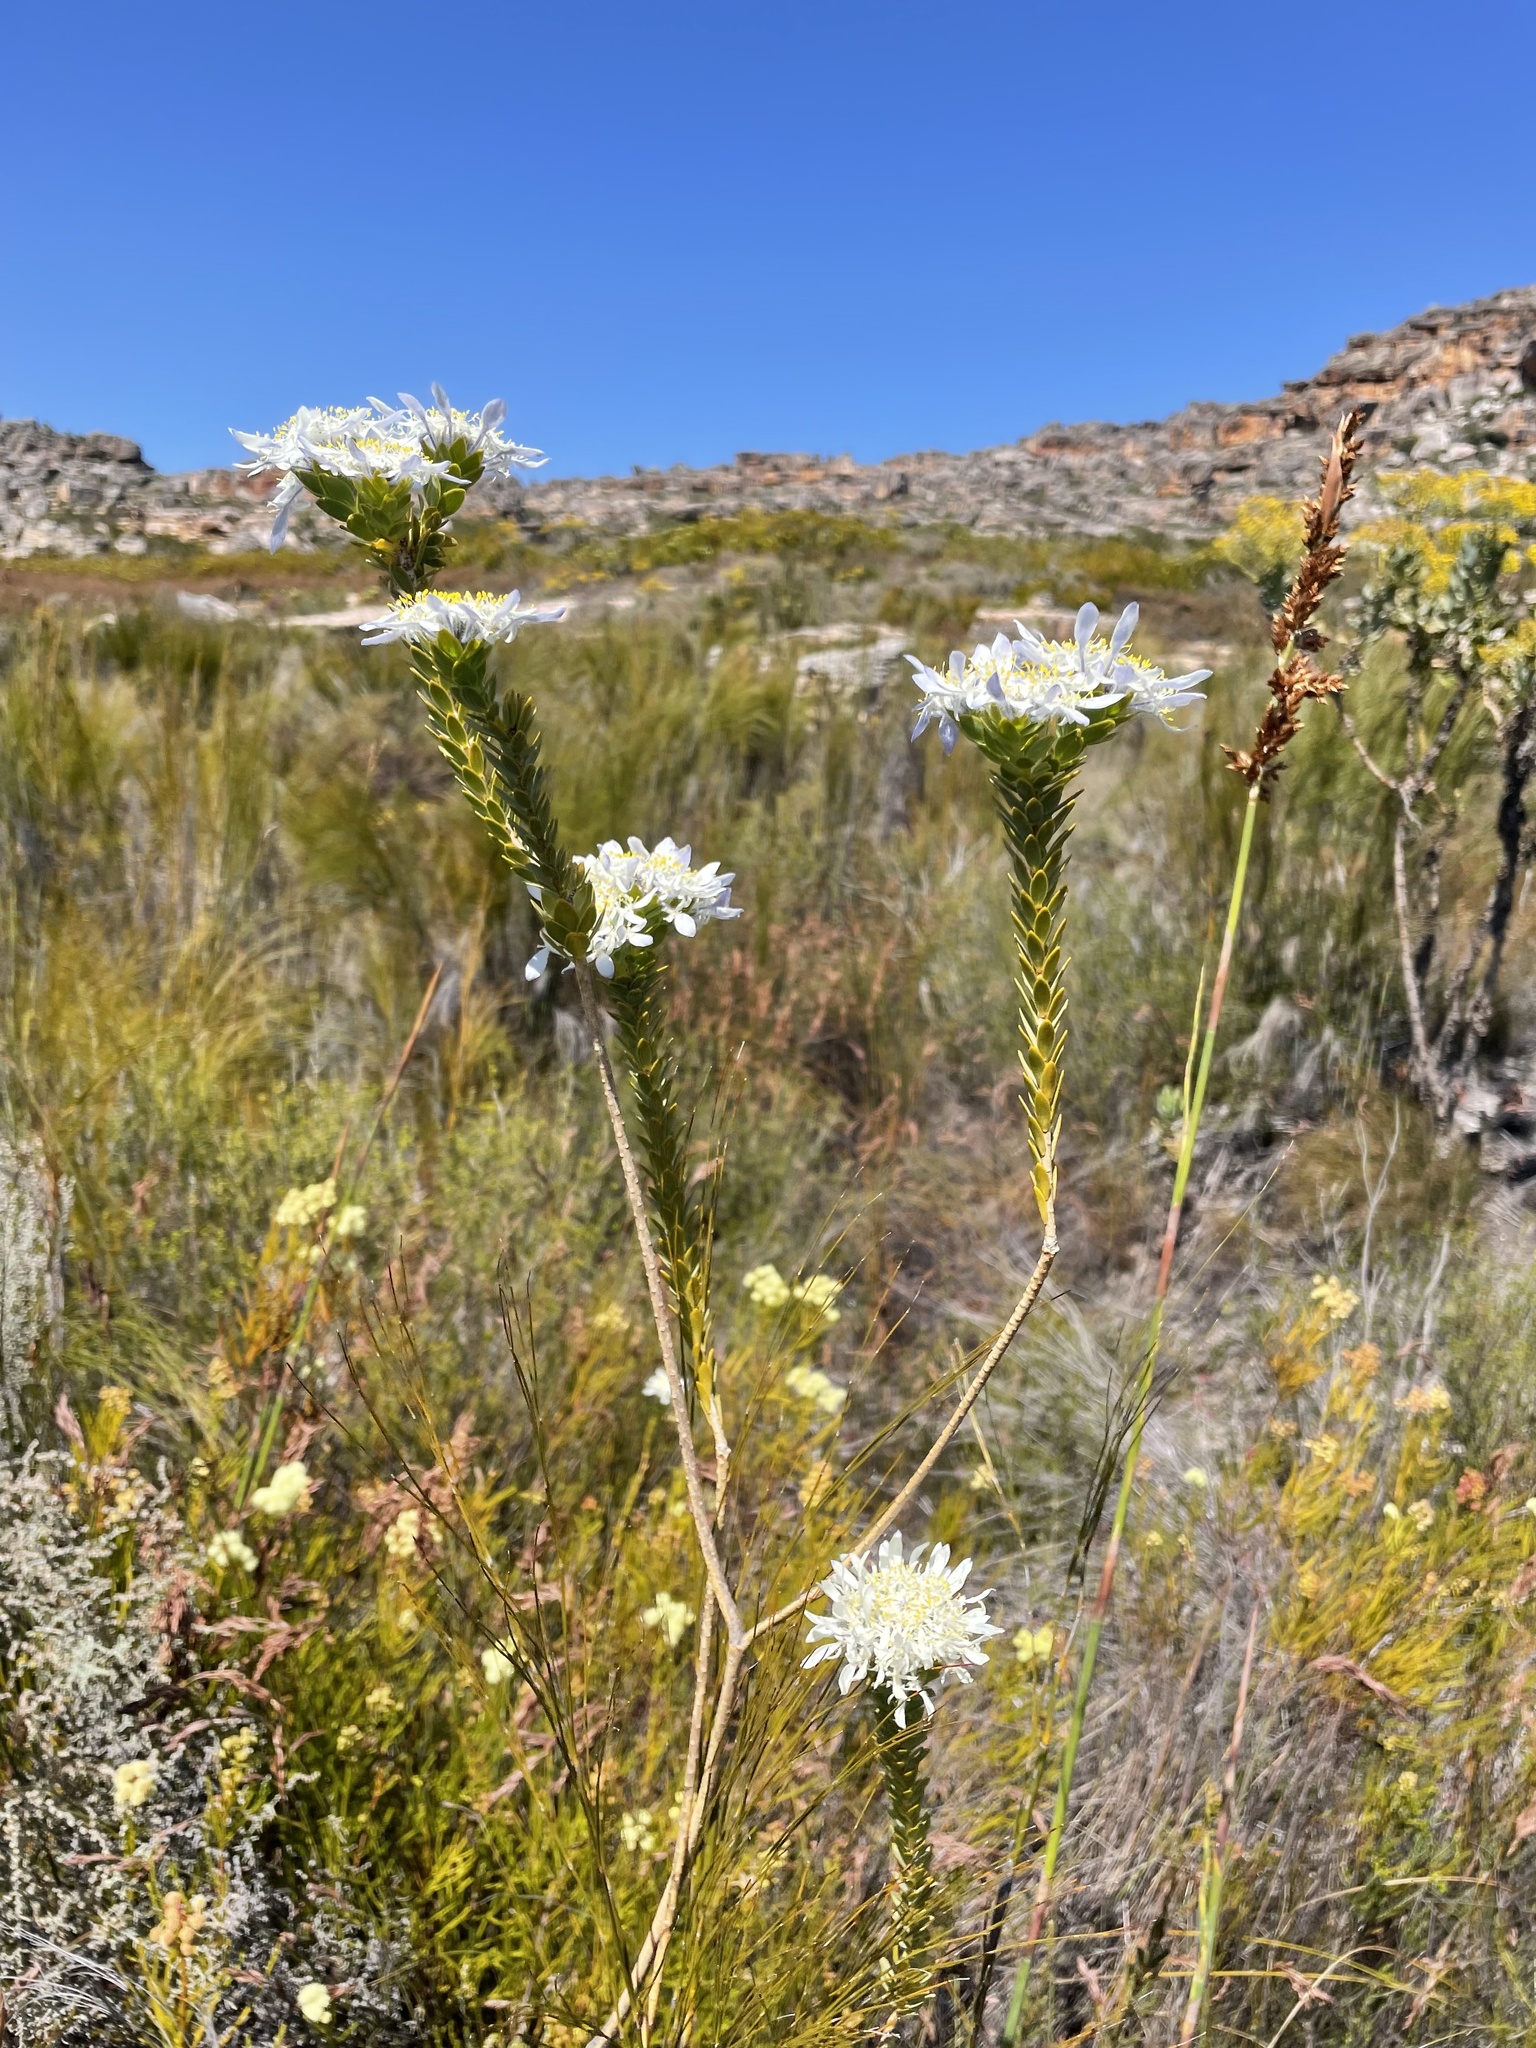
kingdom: Plantae
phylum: Tracheophyta
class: Magnoliopsida
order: Malvales
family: Thymelaeaceae
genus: Lachnaea
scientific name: Lachnaea filamentosa
